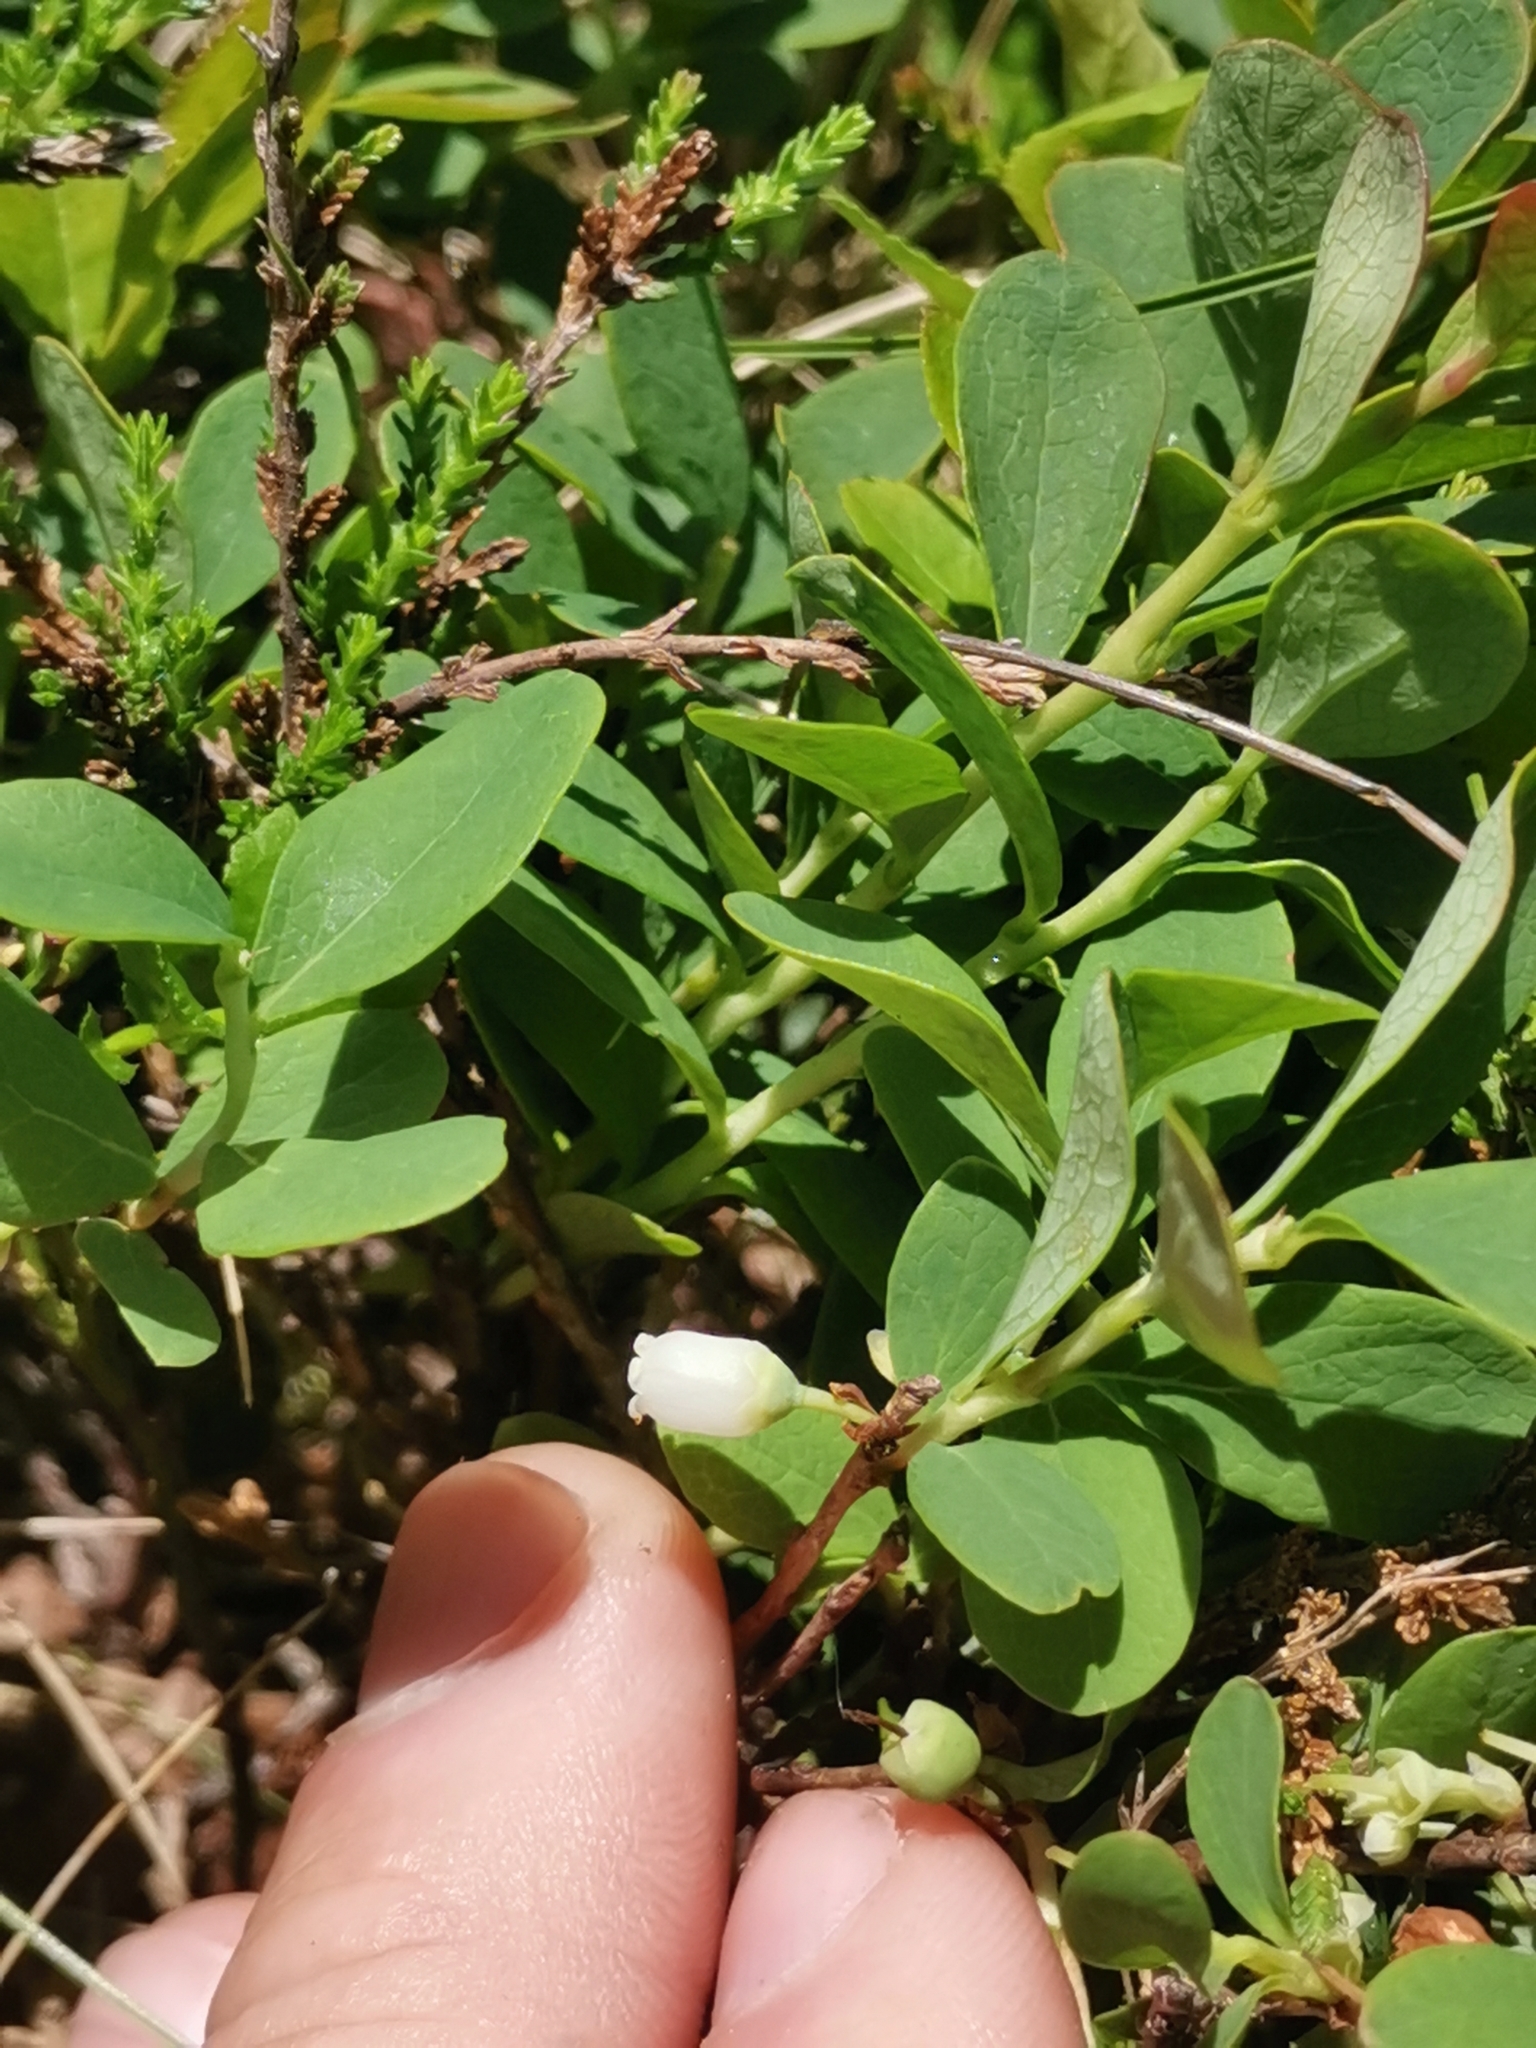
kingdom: Plantae
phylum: Tracheophyta
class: Magnoliopsida
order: Ericales
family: Ericaceae
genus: Vaccinium
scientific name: Vaccinium uliginosum
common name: Bog bilberry
